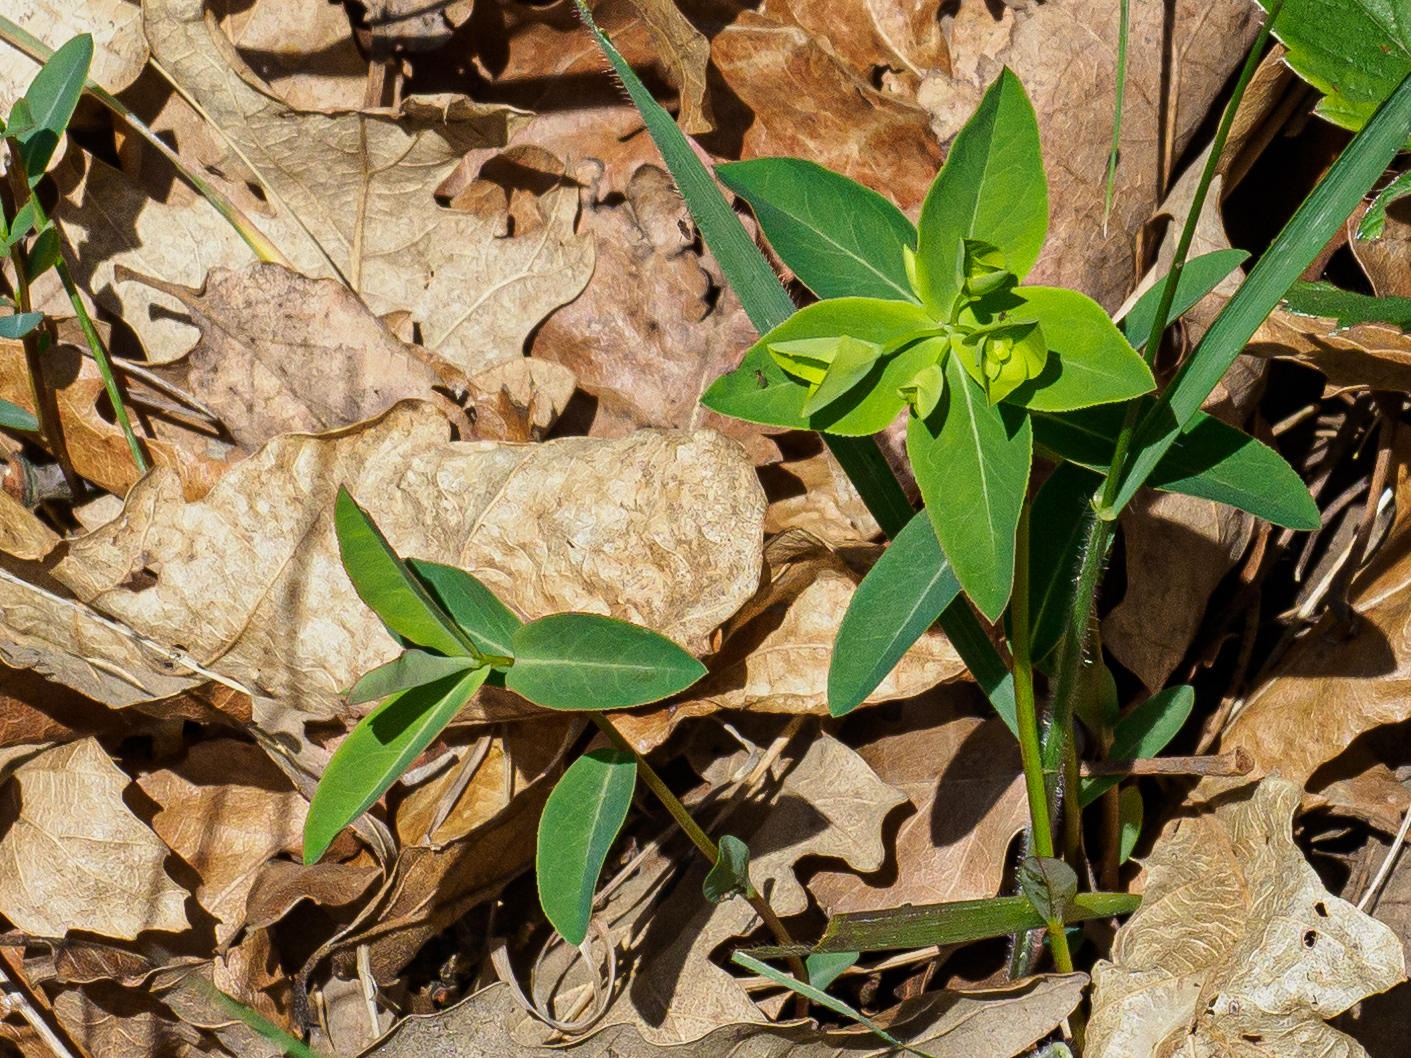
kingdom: Plantae
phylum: Tracheophyta
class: Magnoliopsida
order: Malpighiales
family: Euphorbiaceae
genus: Euphorbia
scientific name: Euphorbia angulata
